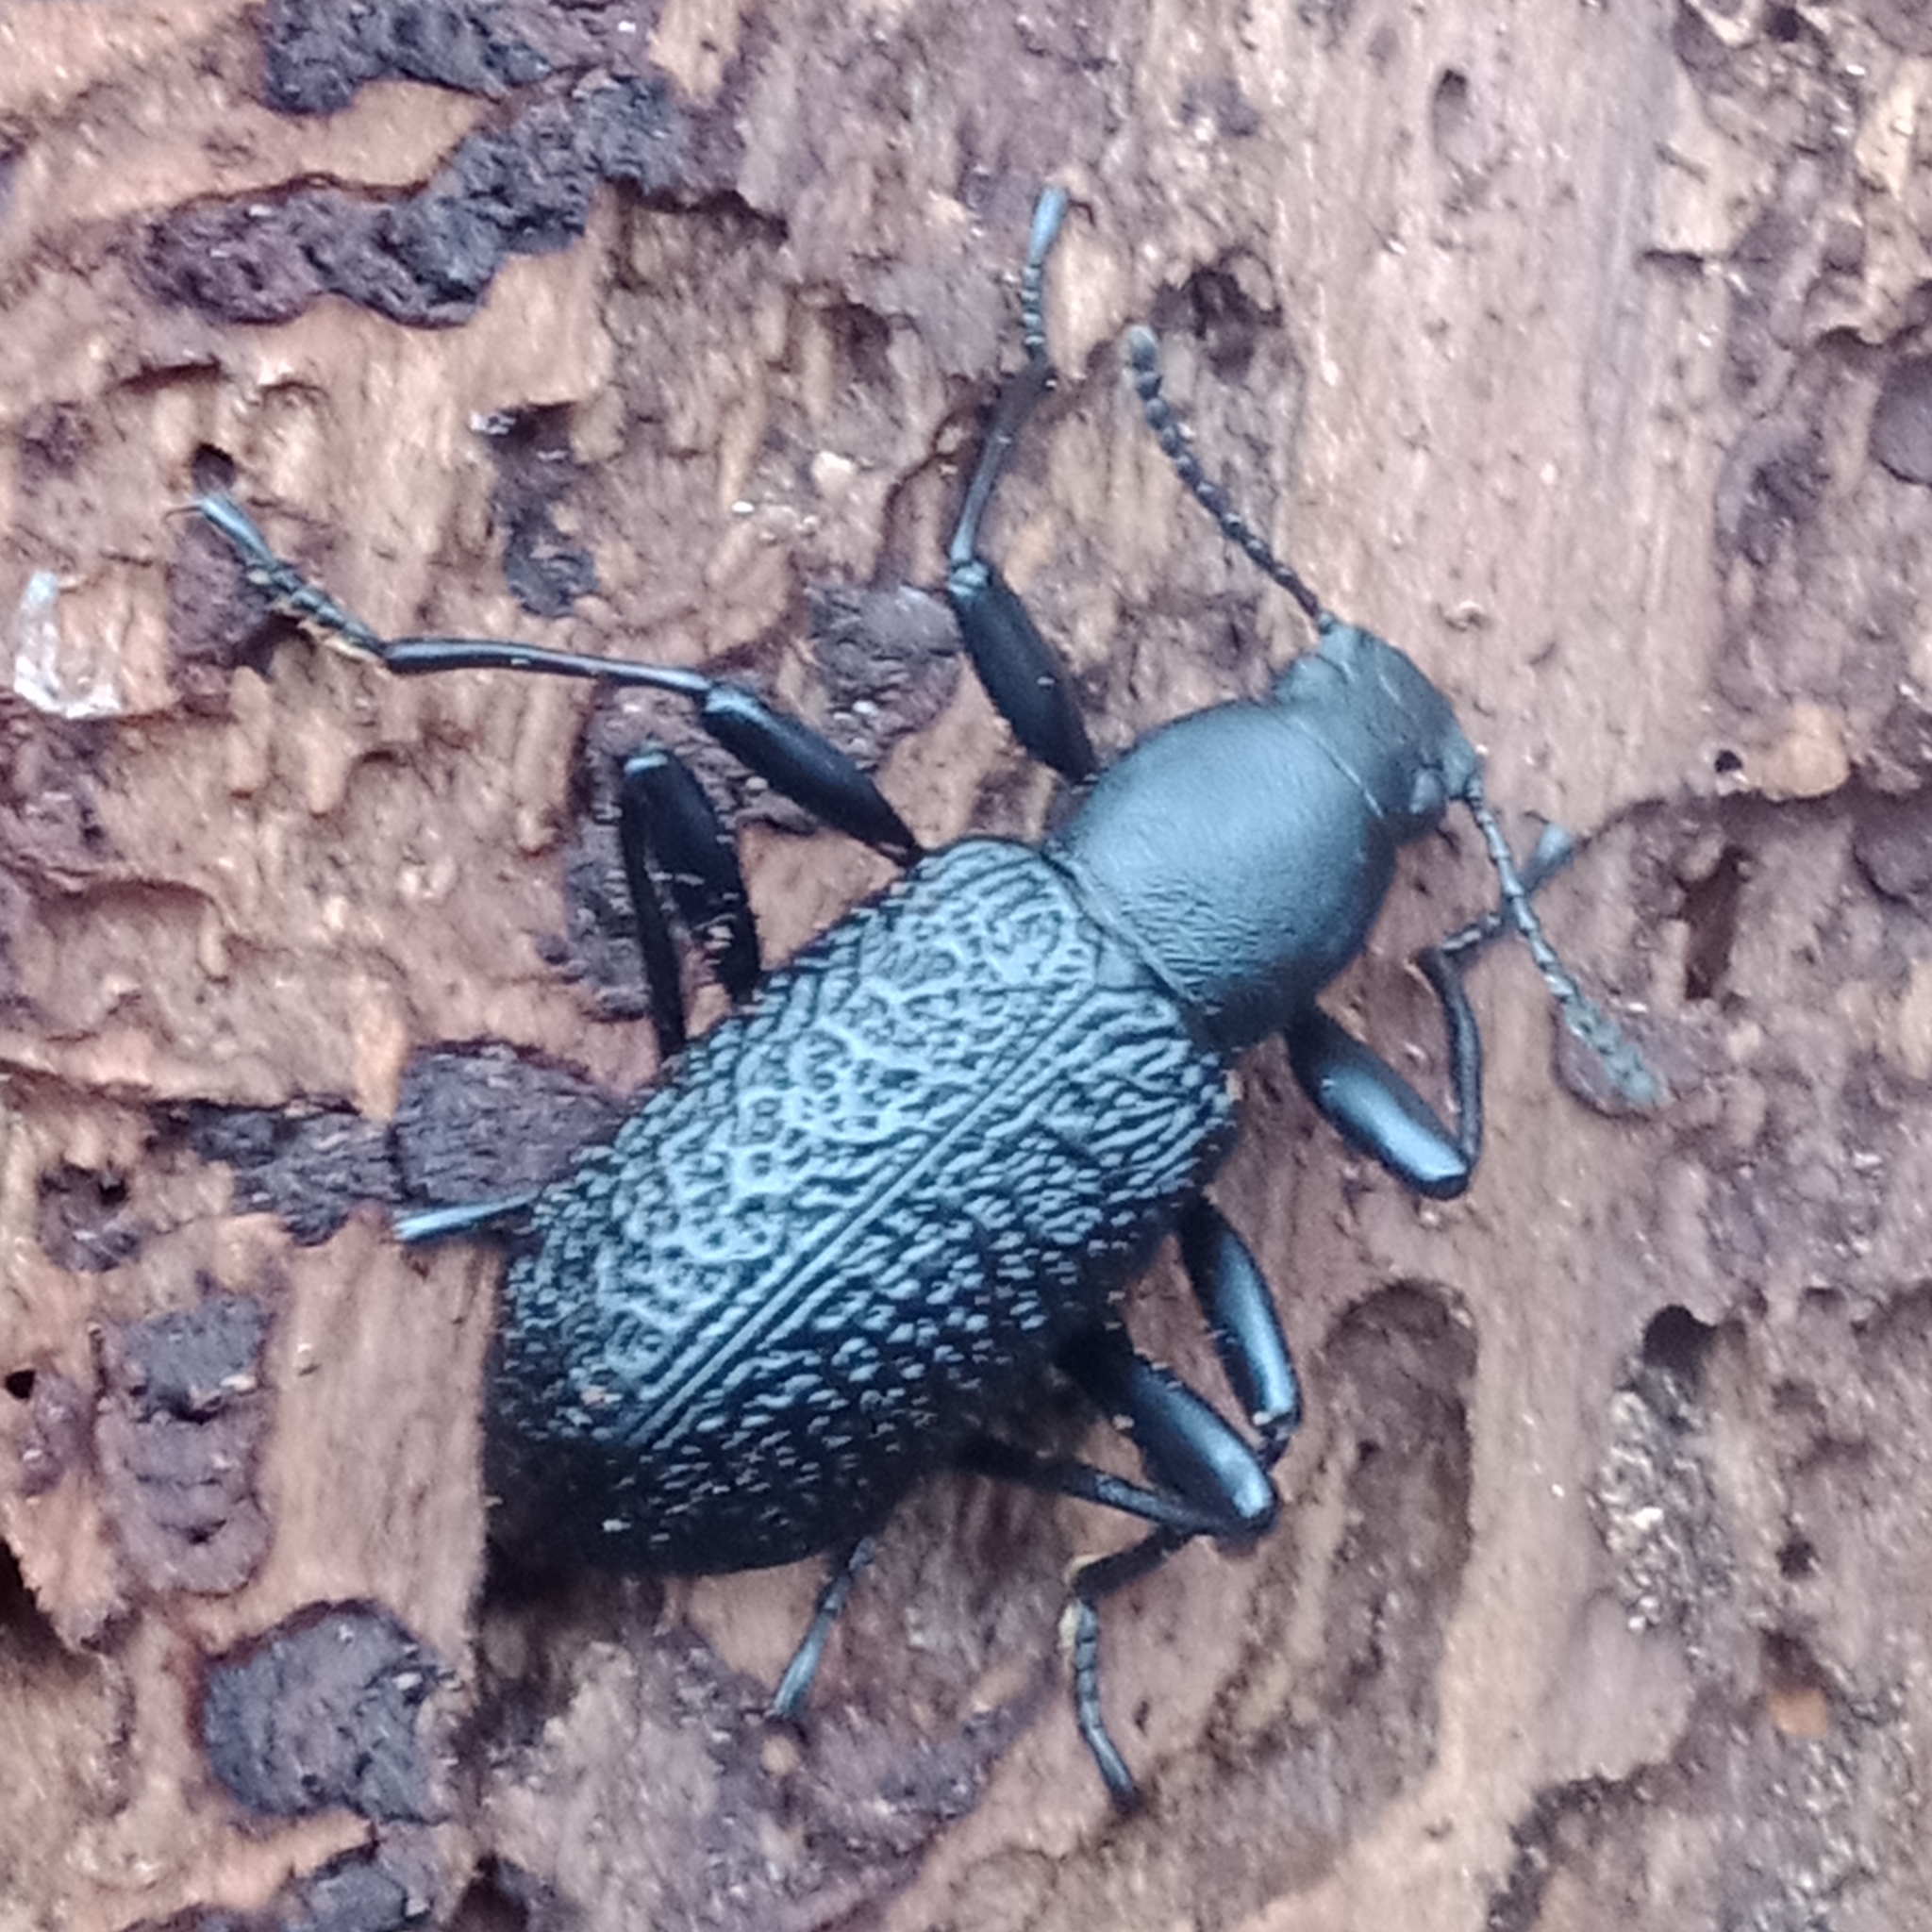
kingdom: Animalia
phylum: Arthropoda
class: Insecta
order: Coleoptera
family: Tenebrionidae
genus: Upis
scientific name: Upis ceramboides
